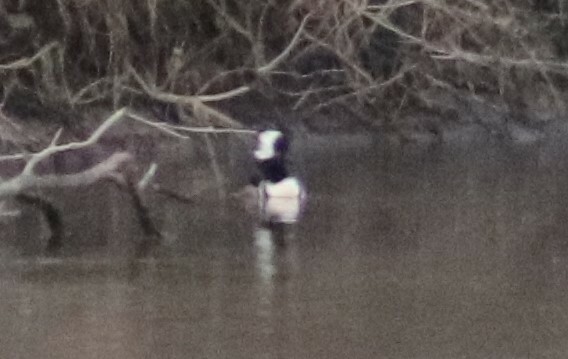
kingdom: Animalia
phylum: Chordata
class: Aves
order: Anseriformes
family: Anatidae
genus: Lophodytes
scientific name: Lophodytes cucullatus
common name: Hooded merganser
